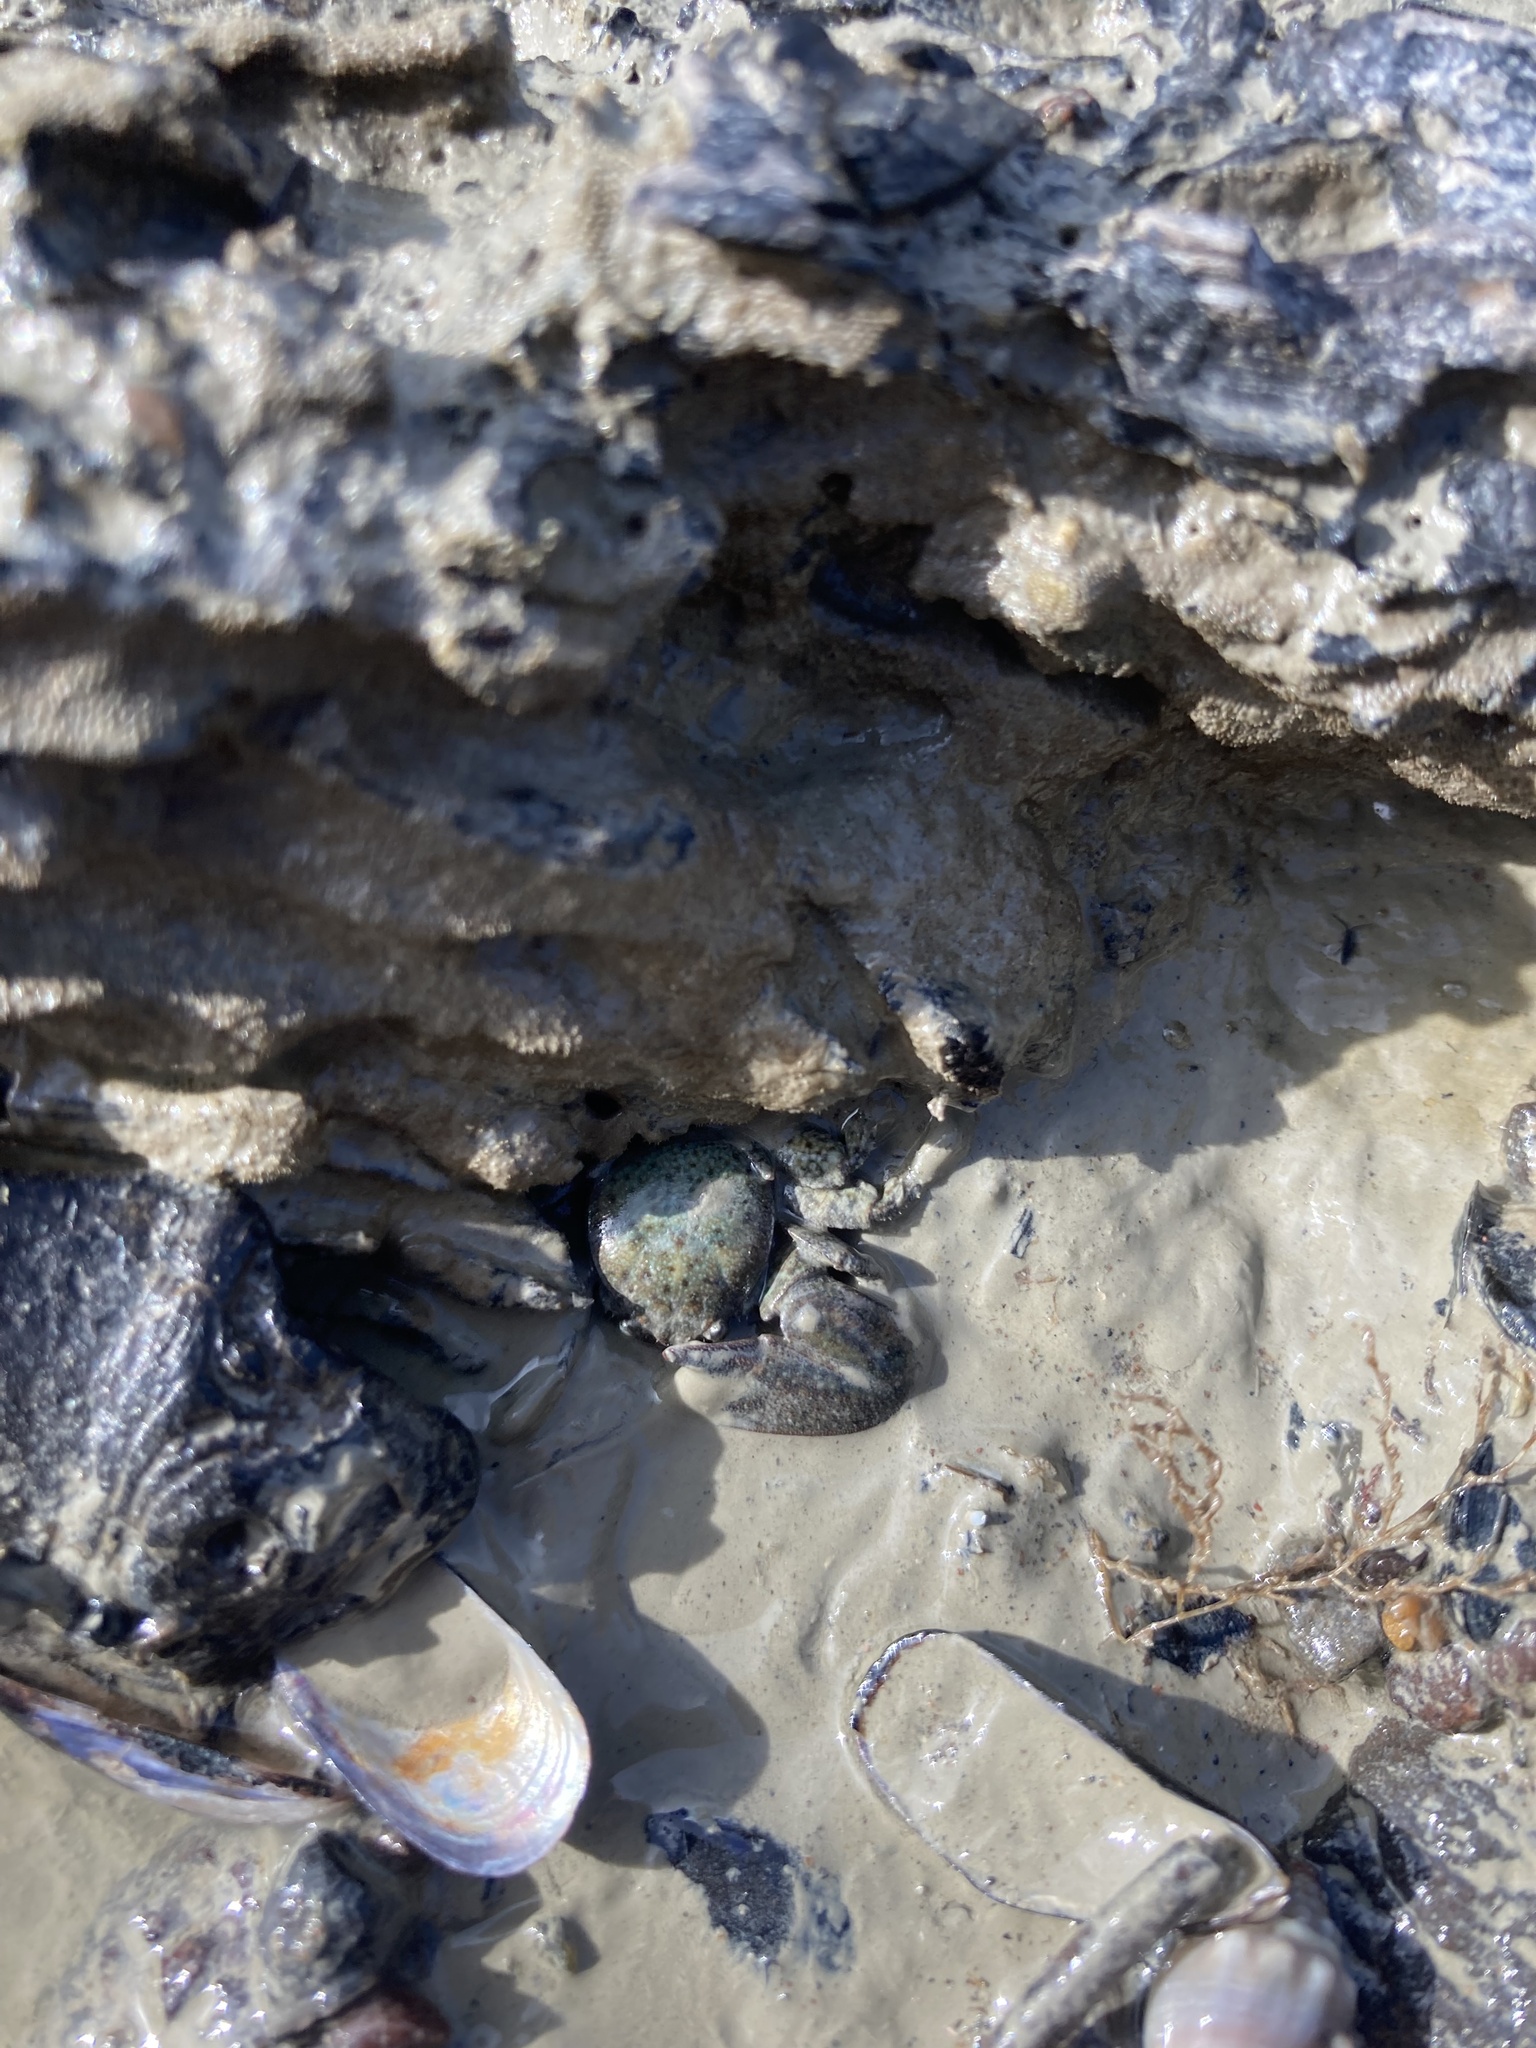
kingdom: Animalia
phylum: Arthropoda
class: Malacostraca
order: Decapoda
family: Porcellanidae
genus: Petrolisthes
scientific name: Petrolisthes elongatus
